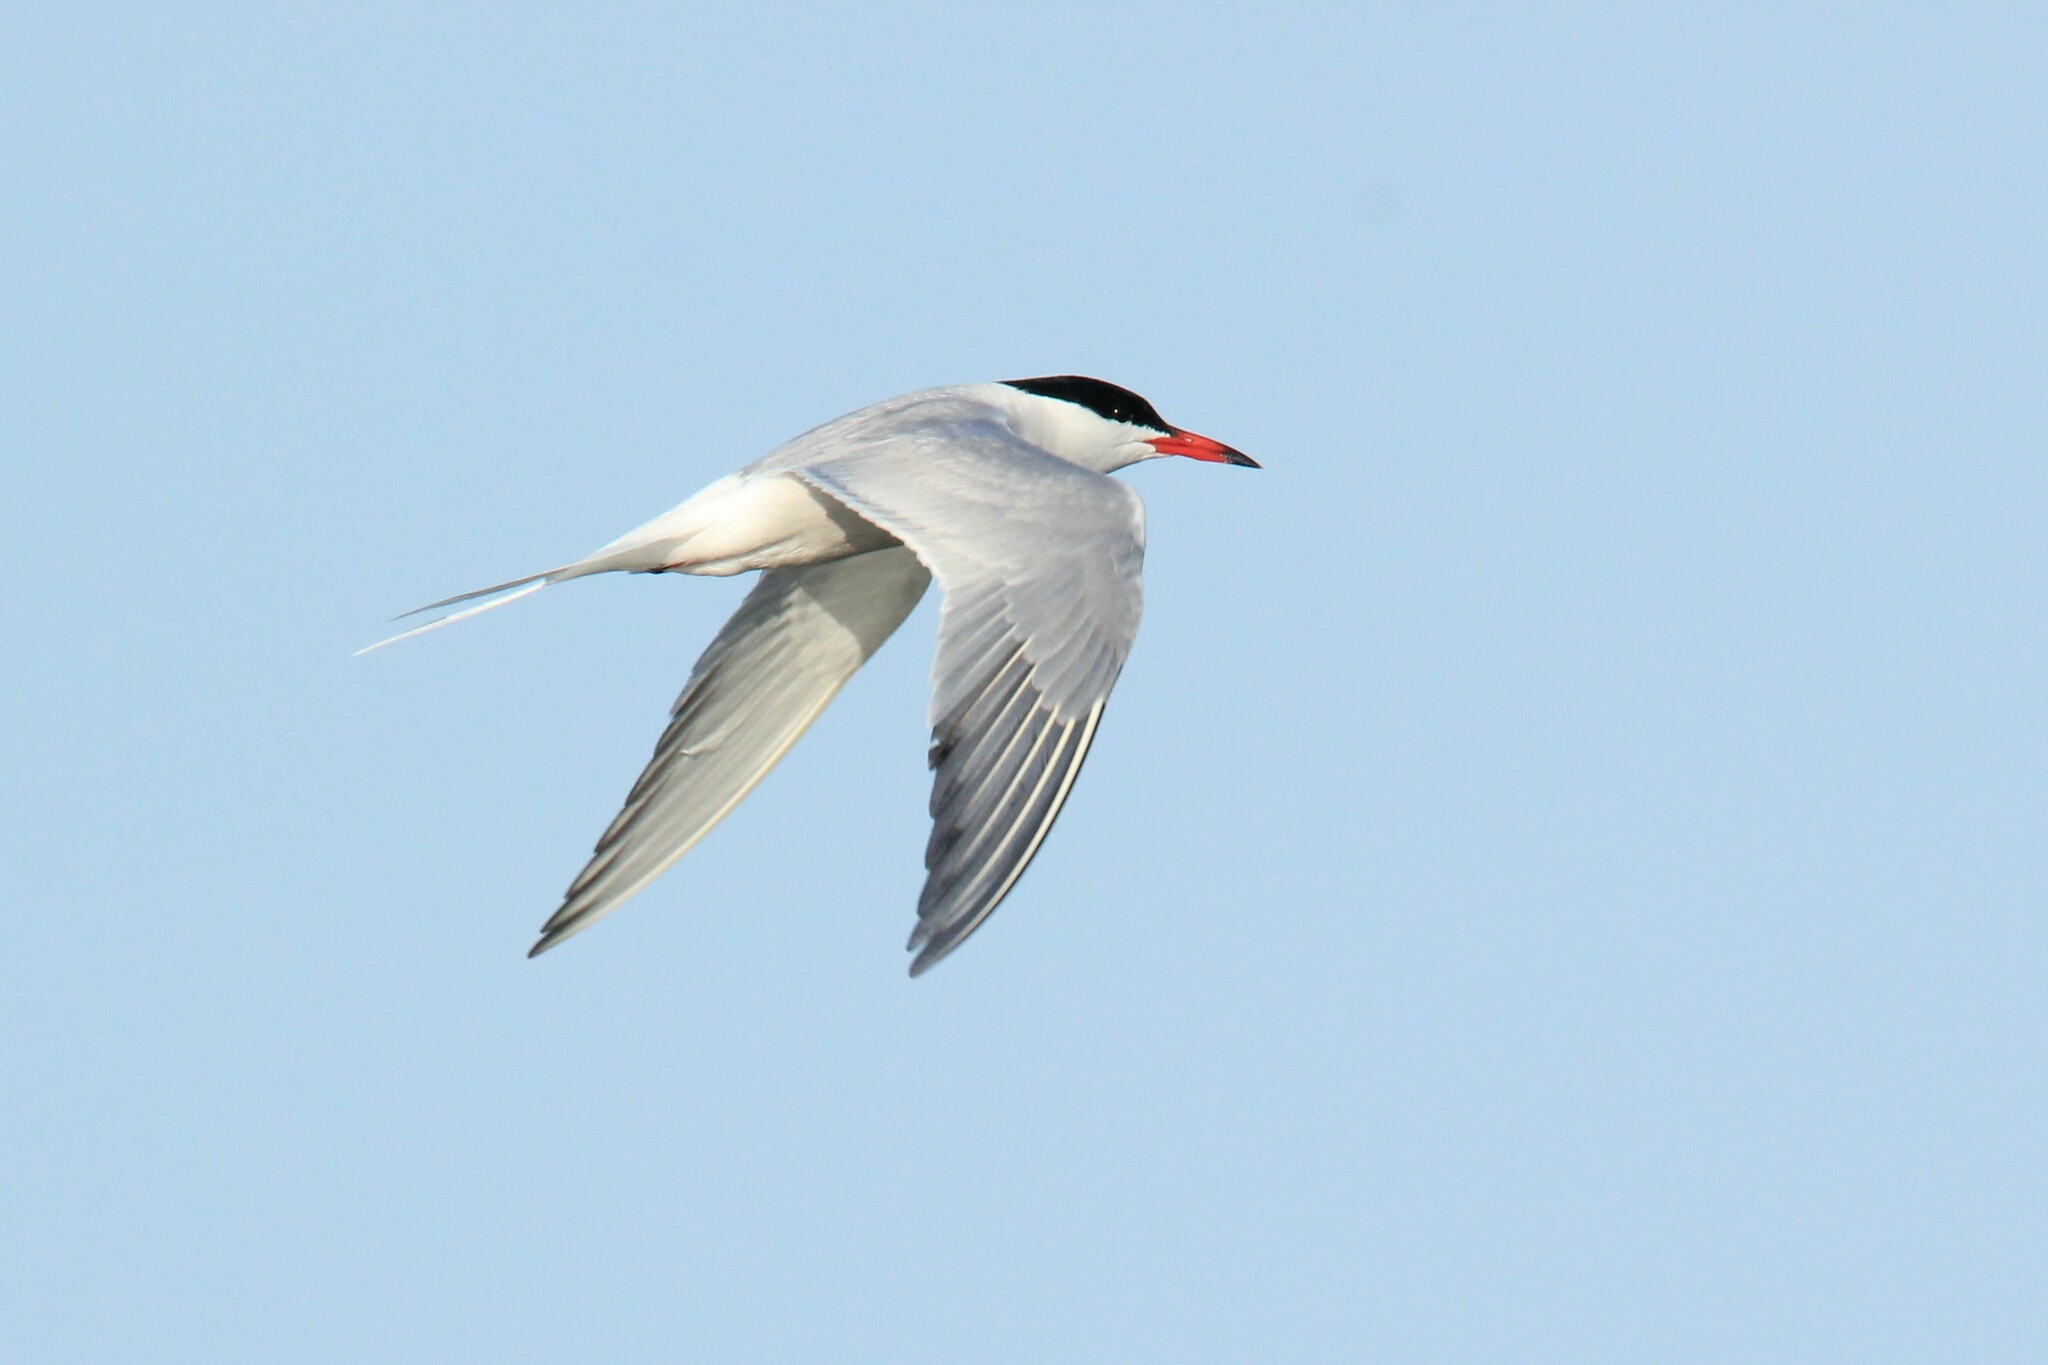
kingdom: Animalia
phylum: Chordata
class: Aves
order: Charadriiformes
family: Laridae
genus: Sterna
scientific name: Sterna hirundo
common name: Common tern
